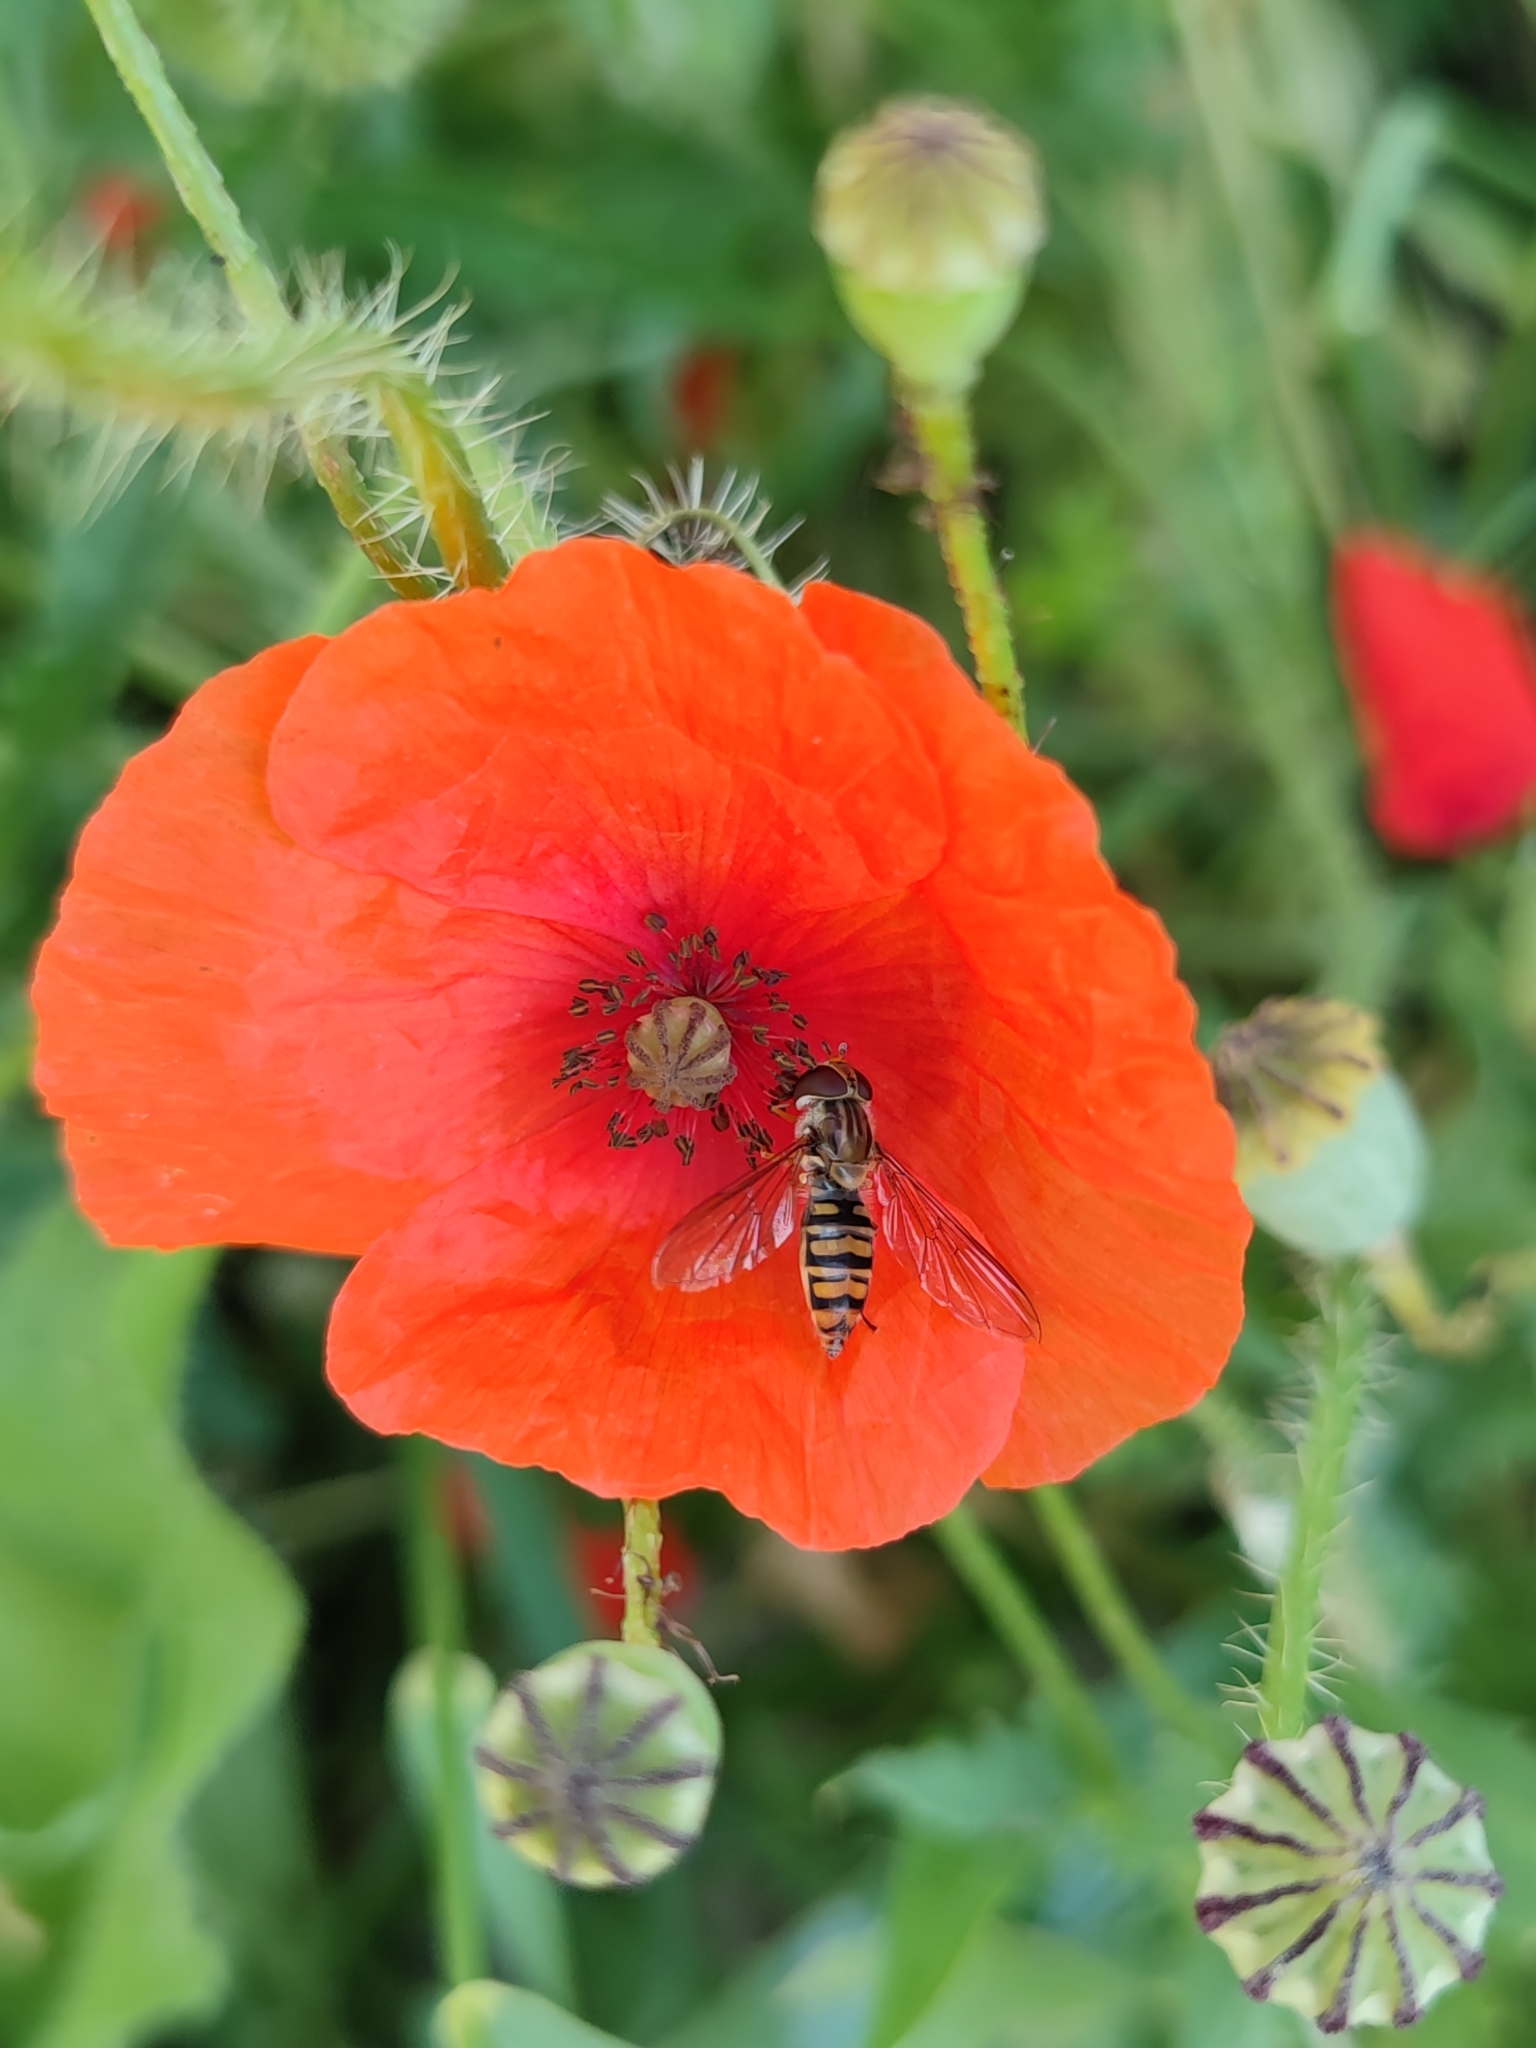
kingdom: Animalia
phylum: Arthropoda
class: Insecta
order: Diptera
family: Syrphidae
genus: Episyrphus
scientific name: Episyrphus balteatus
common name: Marmalade hoverfly
